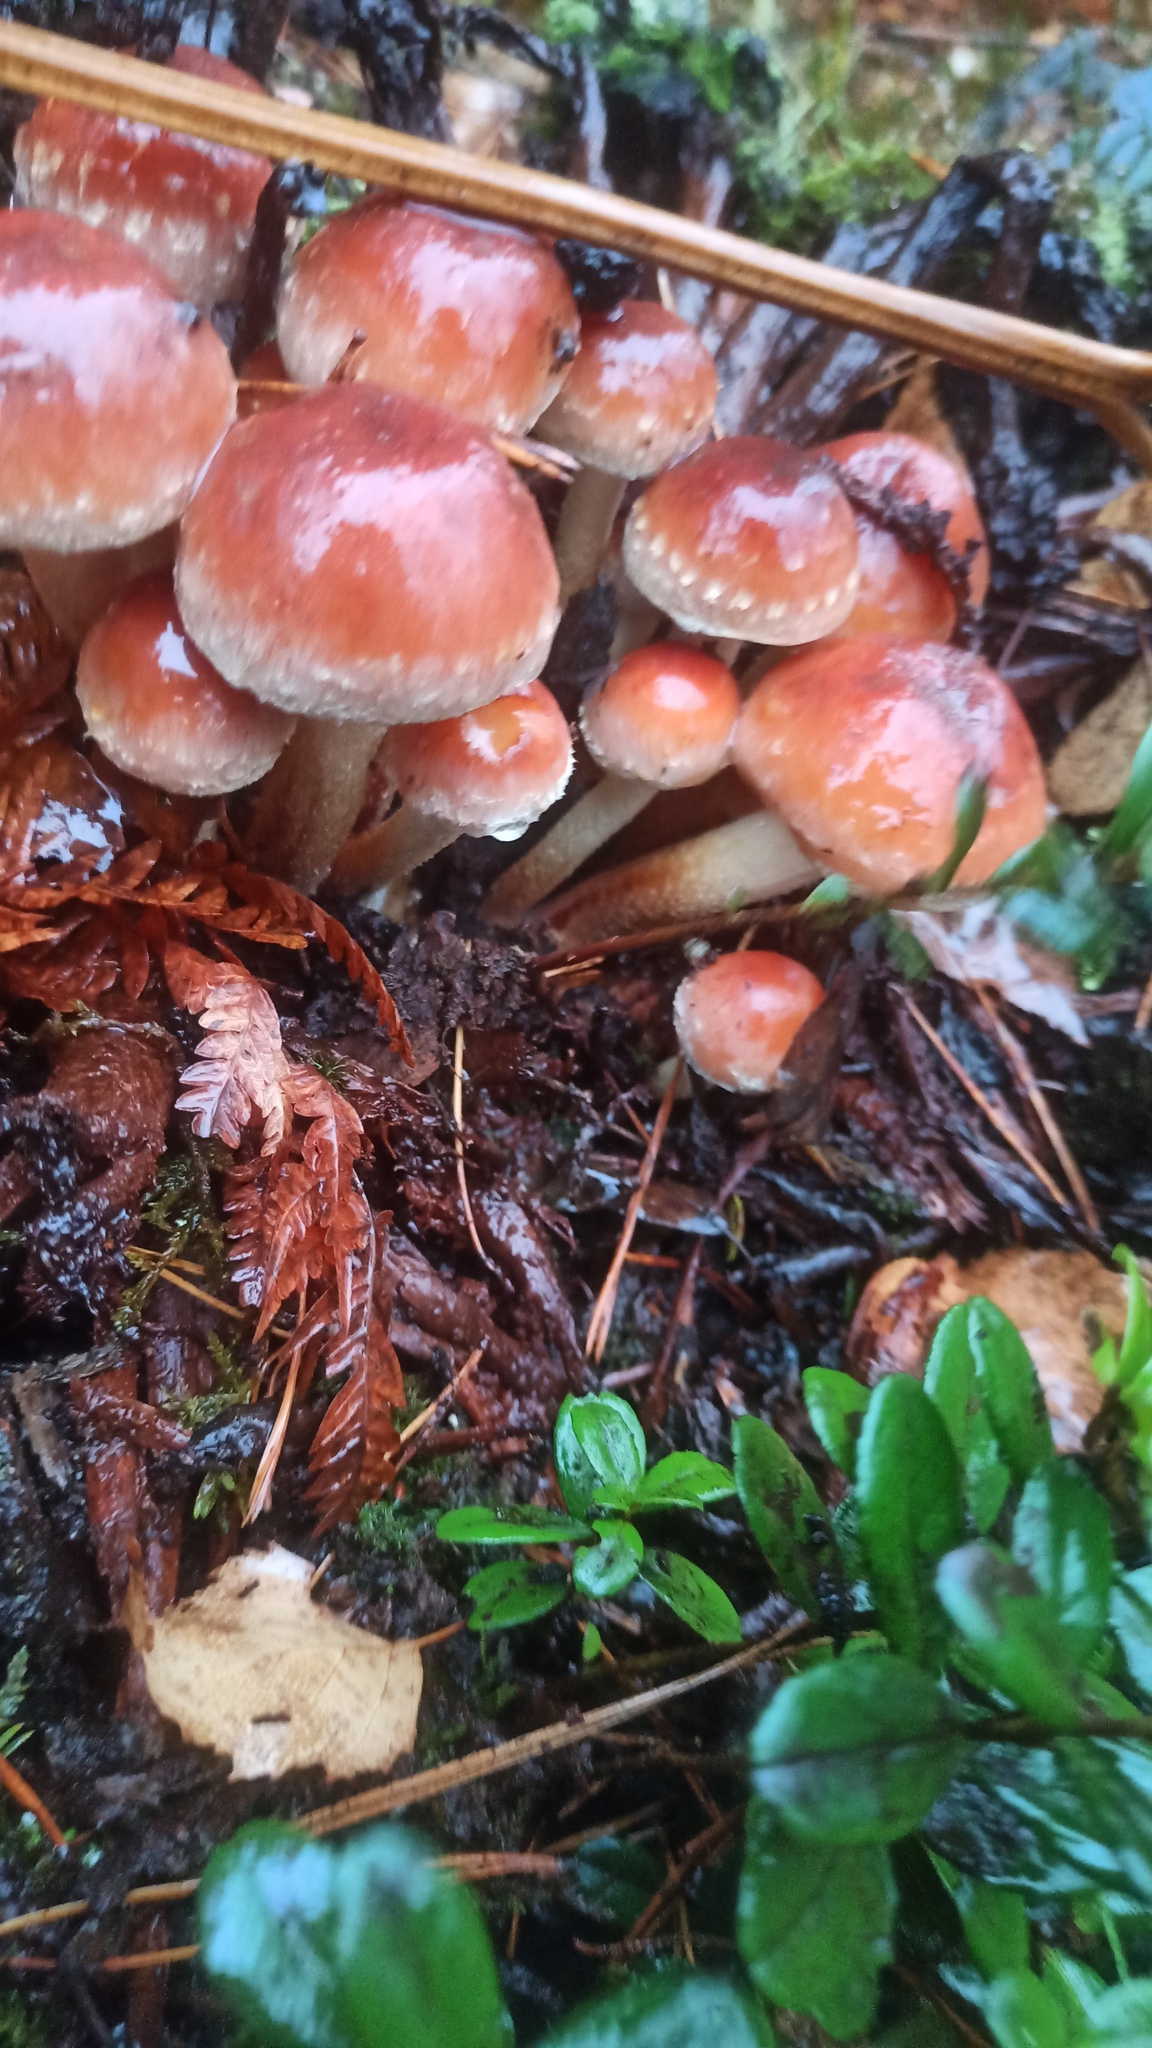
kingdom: Fungi
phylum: Basidiomycota
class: Agaricomycetes
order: Agaricales
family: Strophariaceae
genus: Hypholoma
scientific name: Hypholoma lateritium
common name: Brick caps
